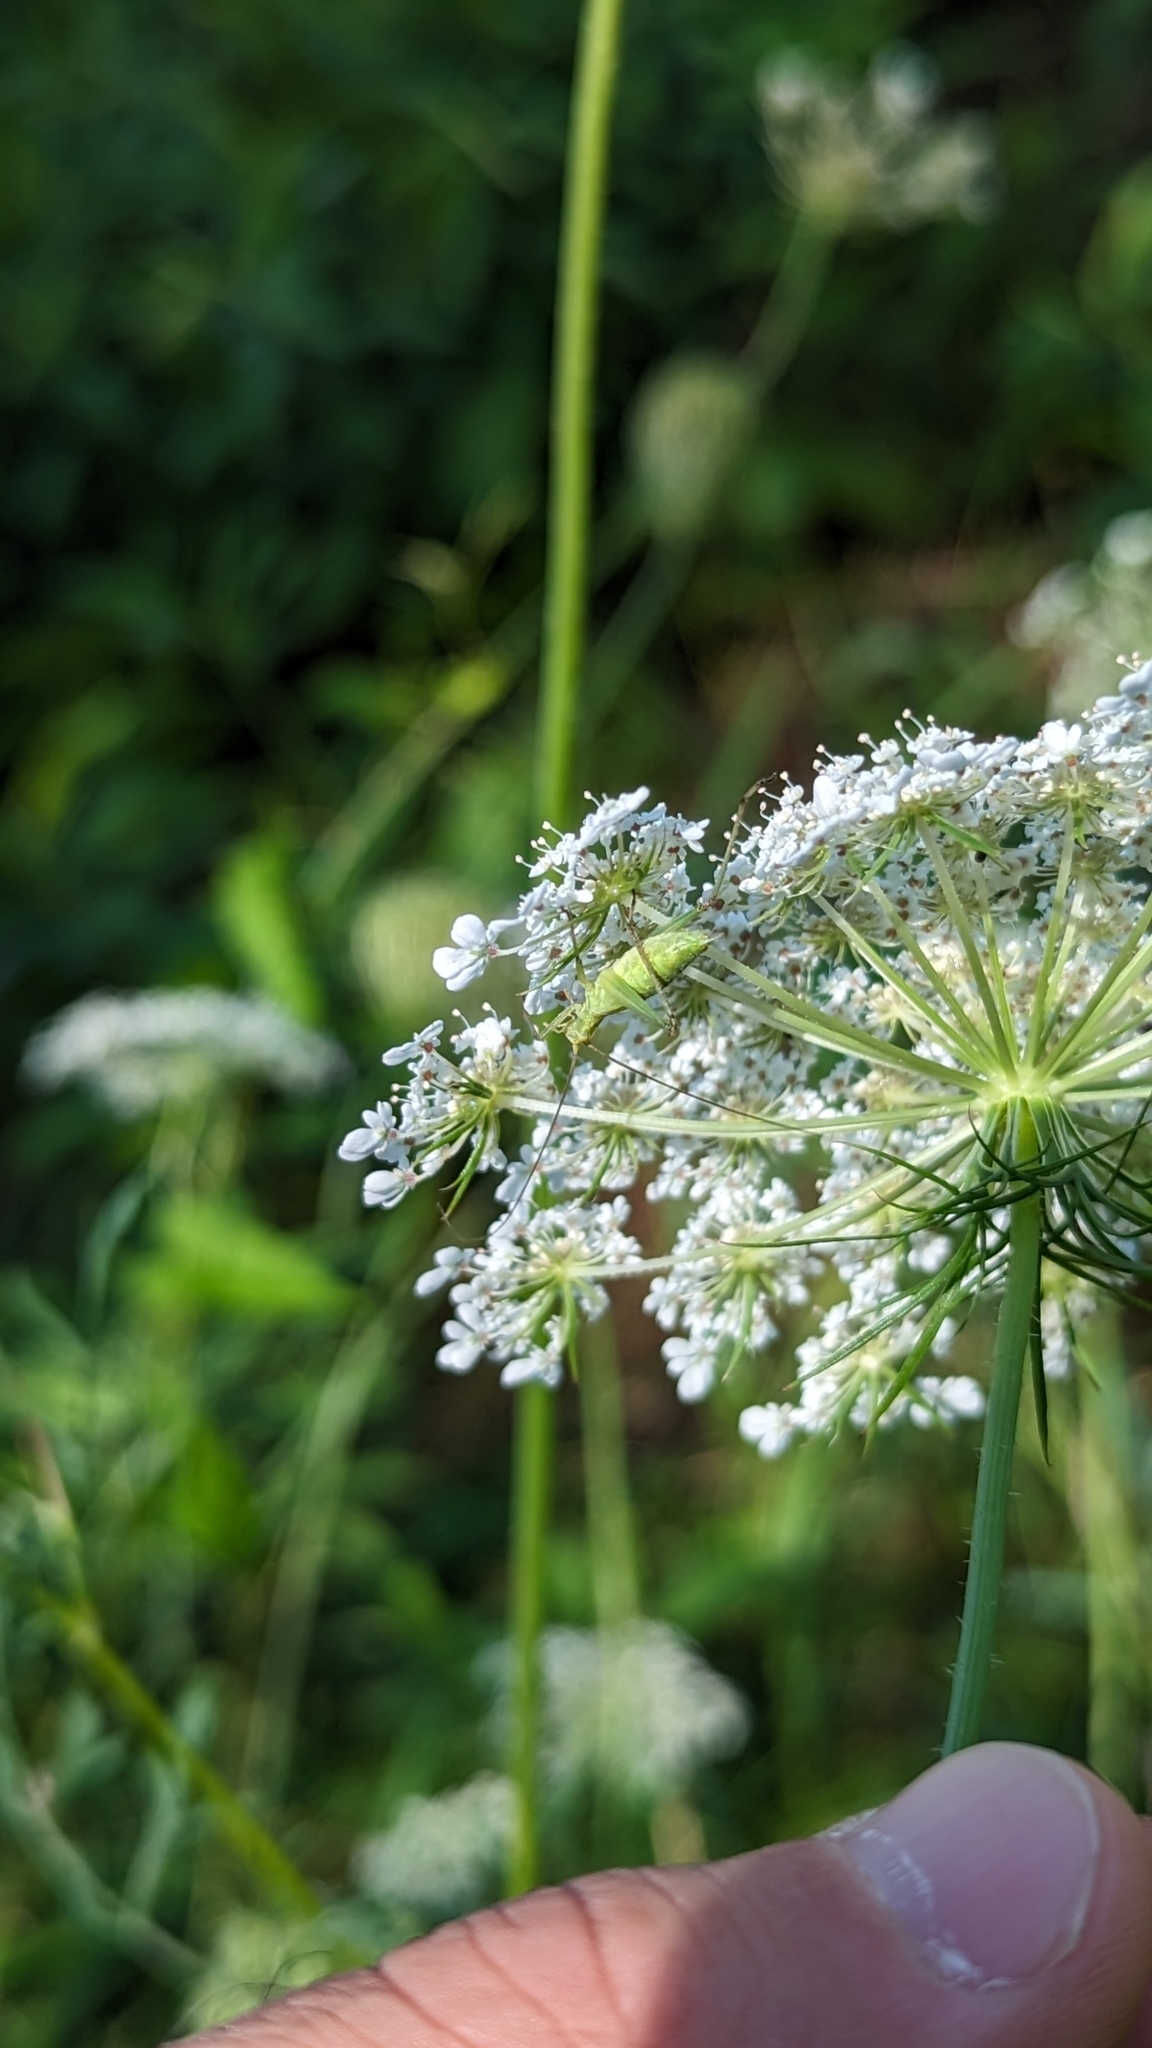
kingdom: Animalia
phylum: Arthropoda
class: Insecta
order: Orthoptera
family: Gryllidae
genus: Oecanthus
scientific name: Oecanthus
